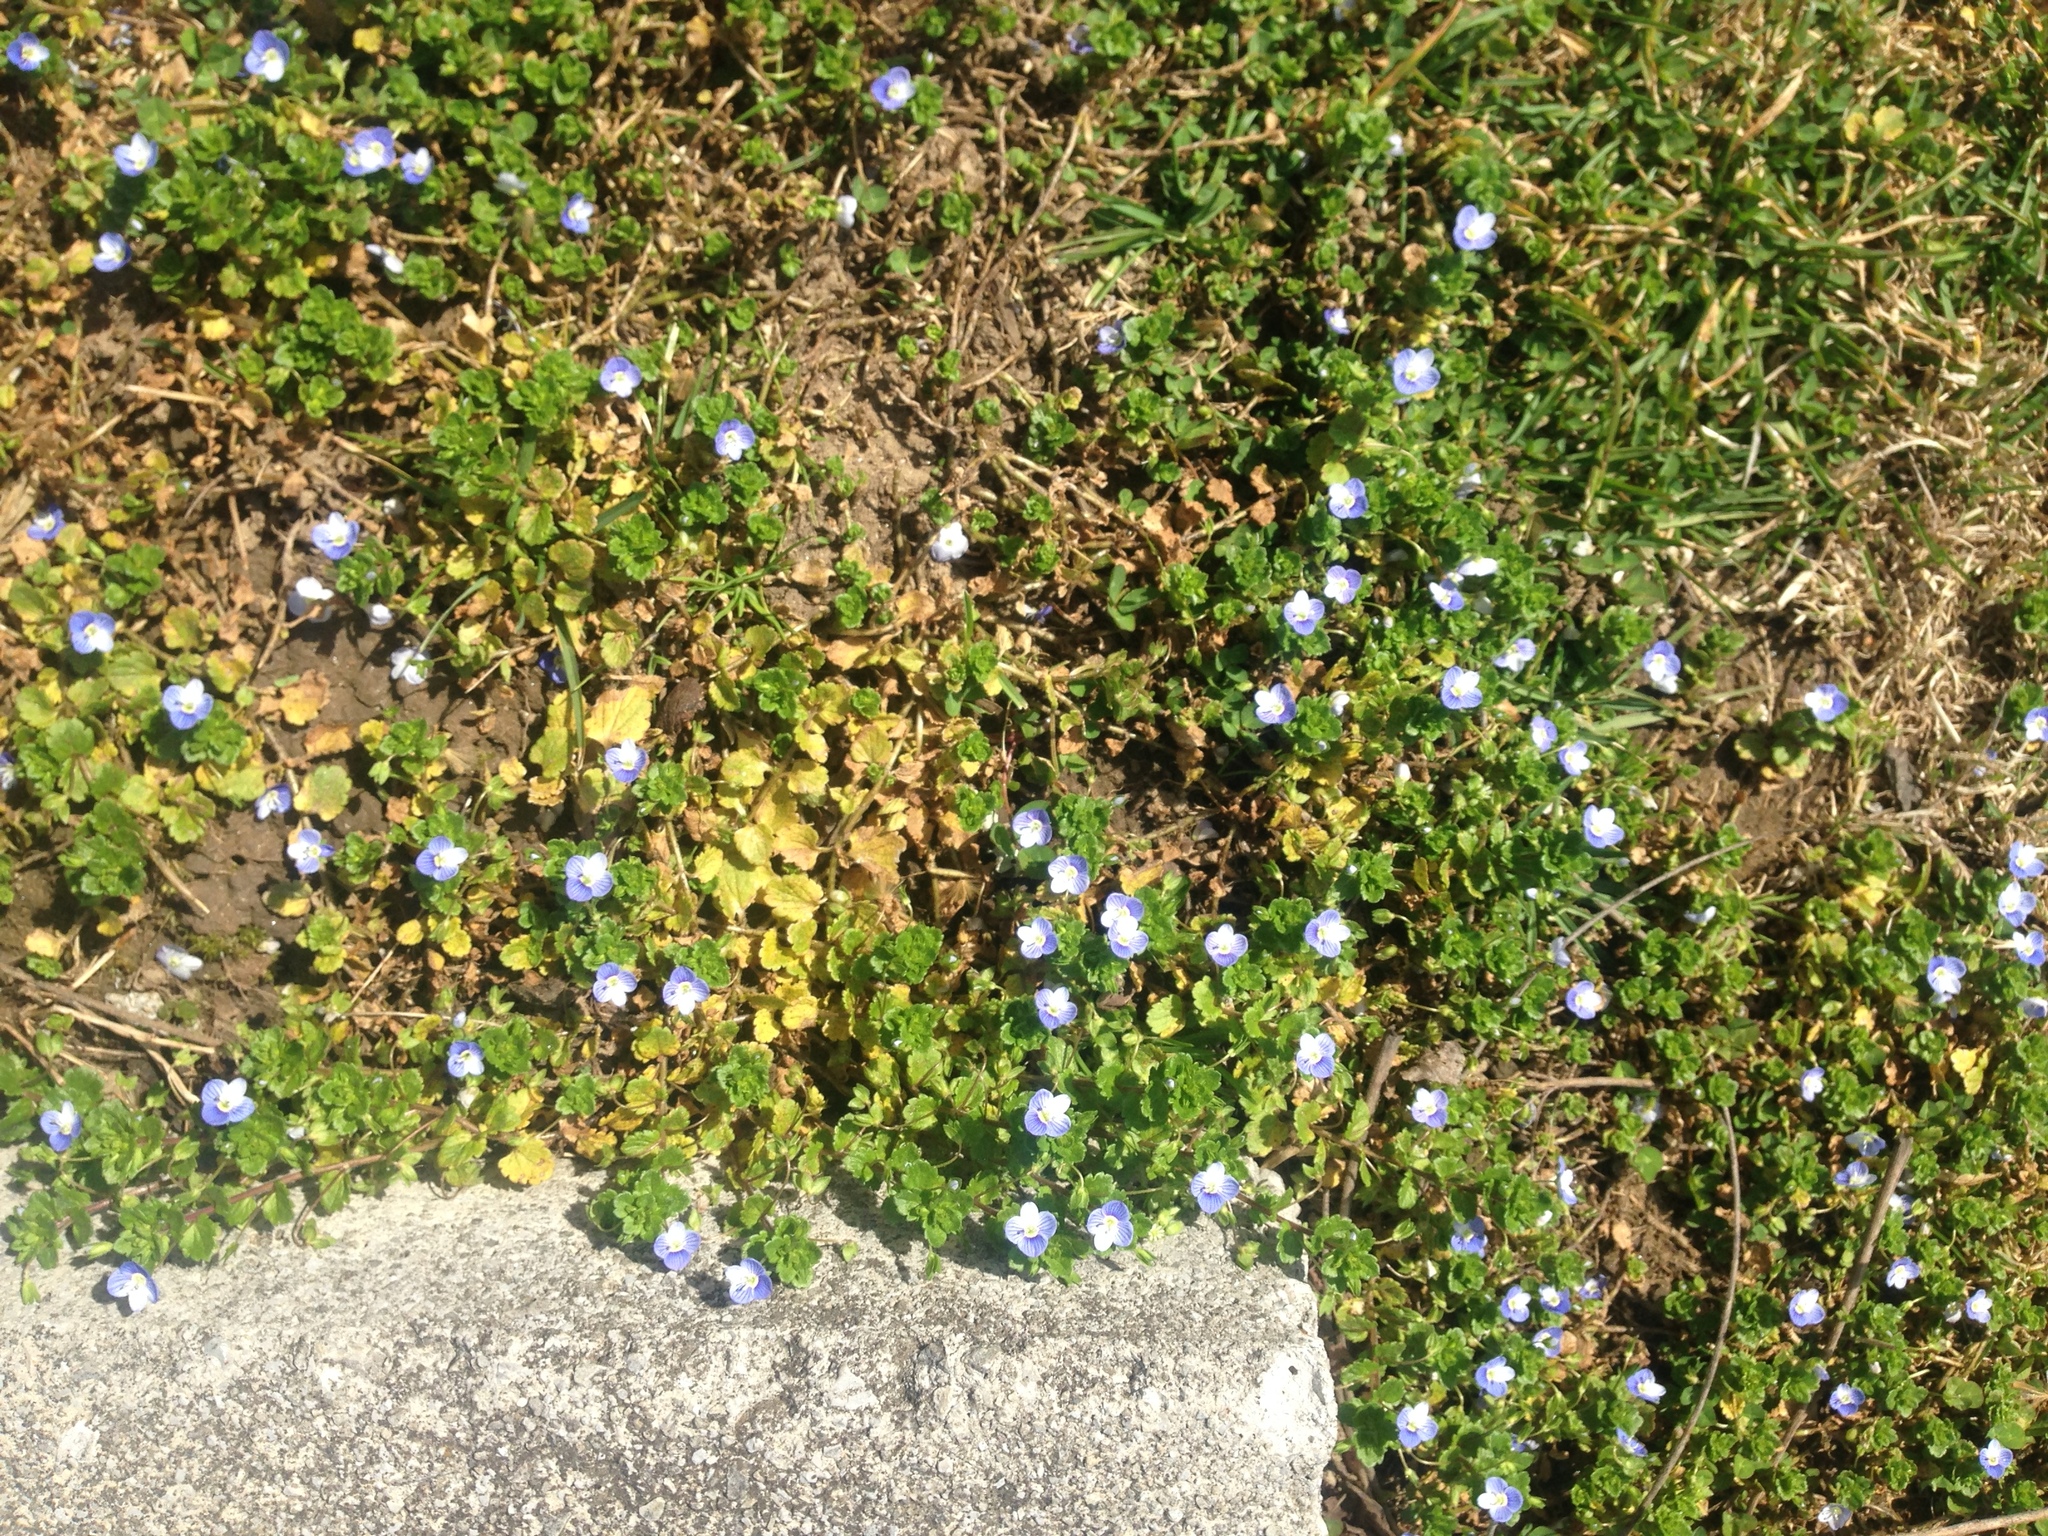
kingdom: Plantae
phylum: Tracheophyta
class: Magnoliopsida
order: Lamiales
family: Plantaginaceae
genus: Veronica
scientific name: Veronica persica
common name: Common field-speedwell
